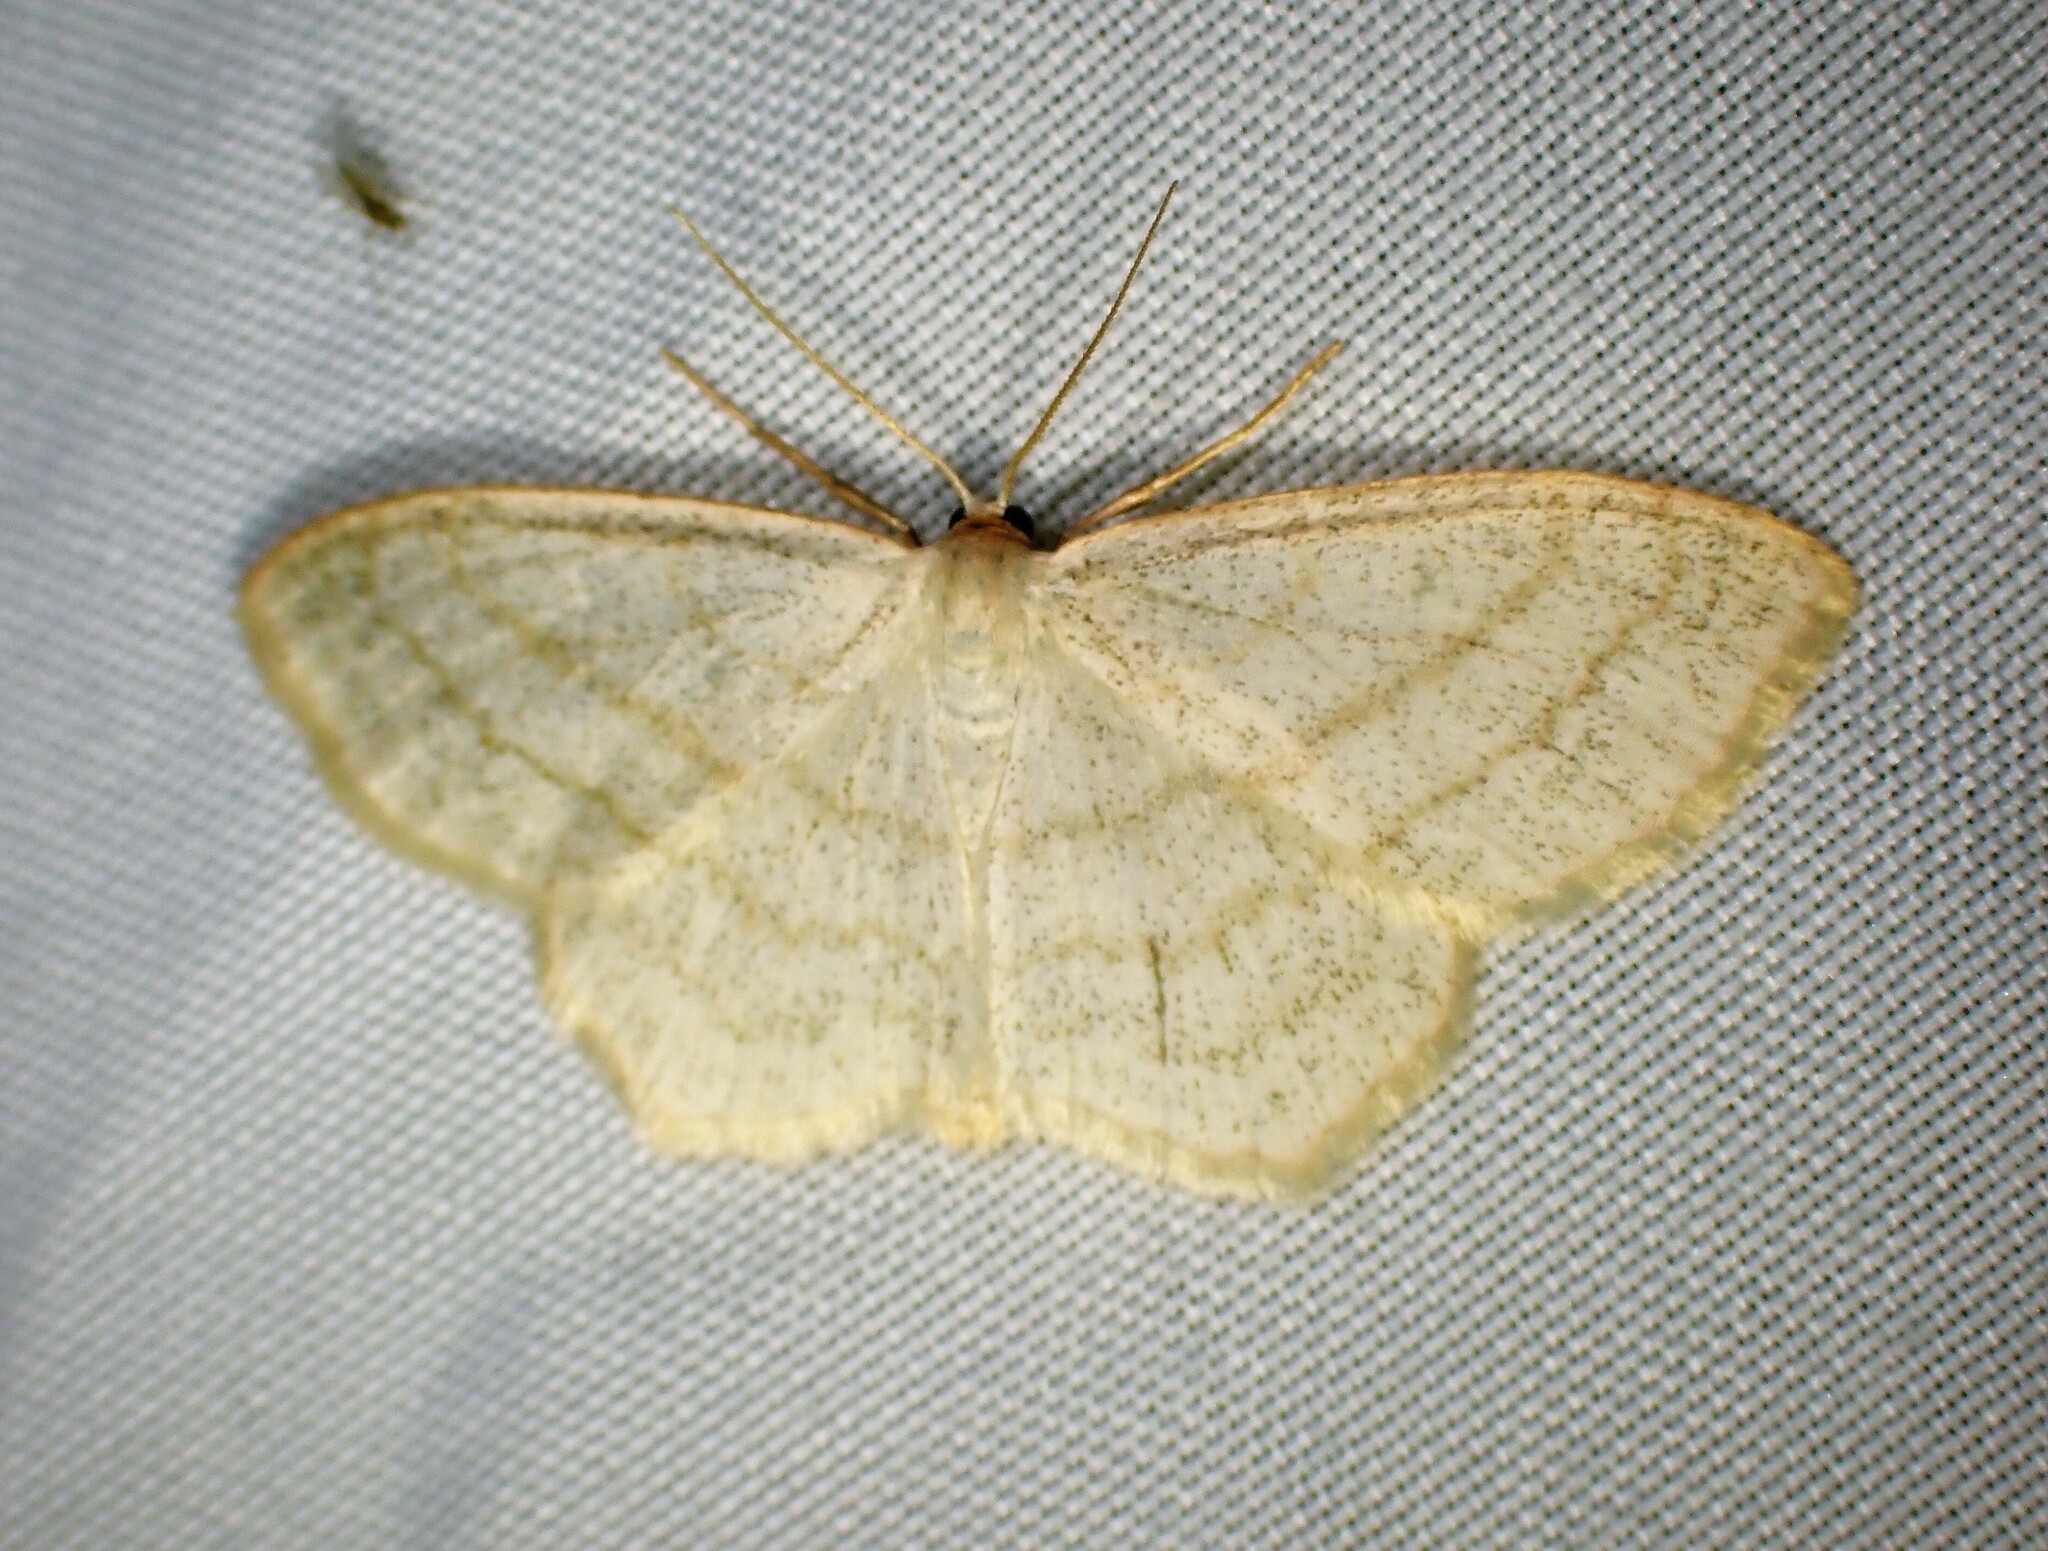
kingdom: Animalia
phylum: Arthropoda
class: Insecta
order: Lepidoptera
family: Geometridae
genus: Scopula
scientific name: Scopula junctaria
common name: Simple wave
